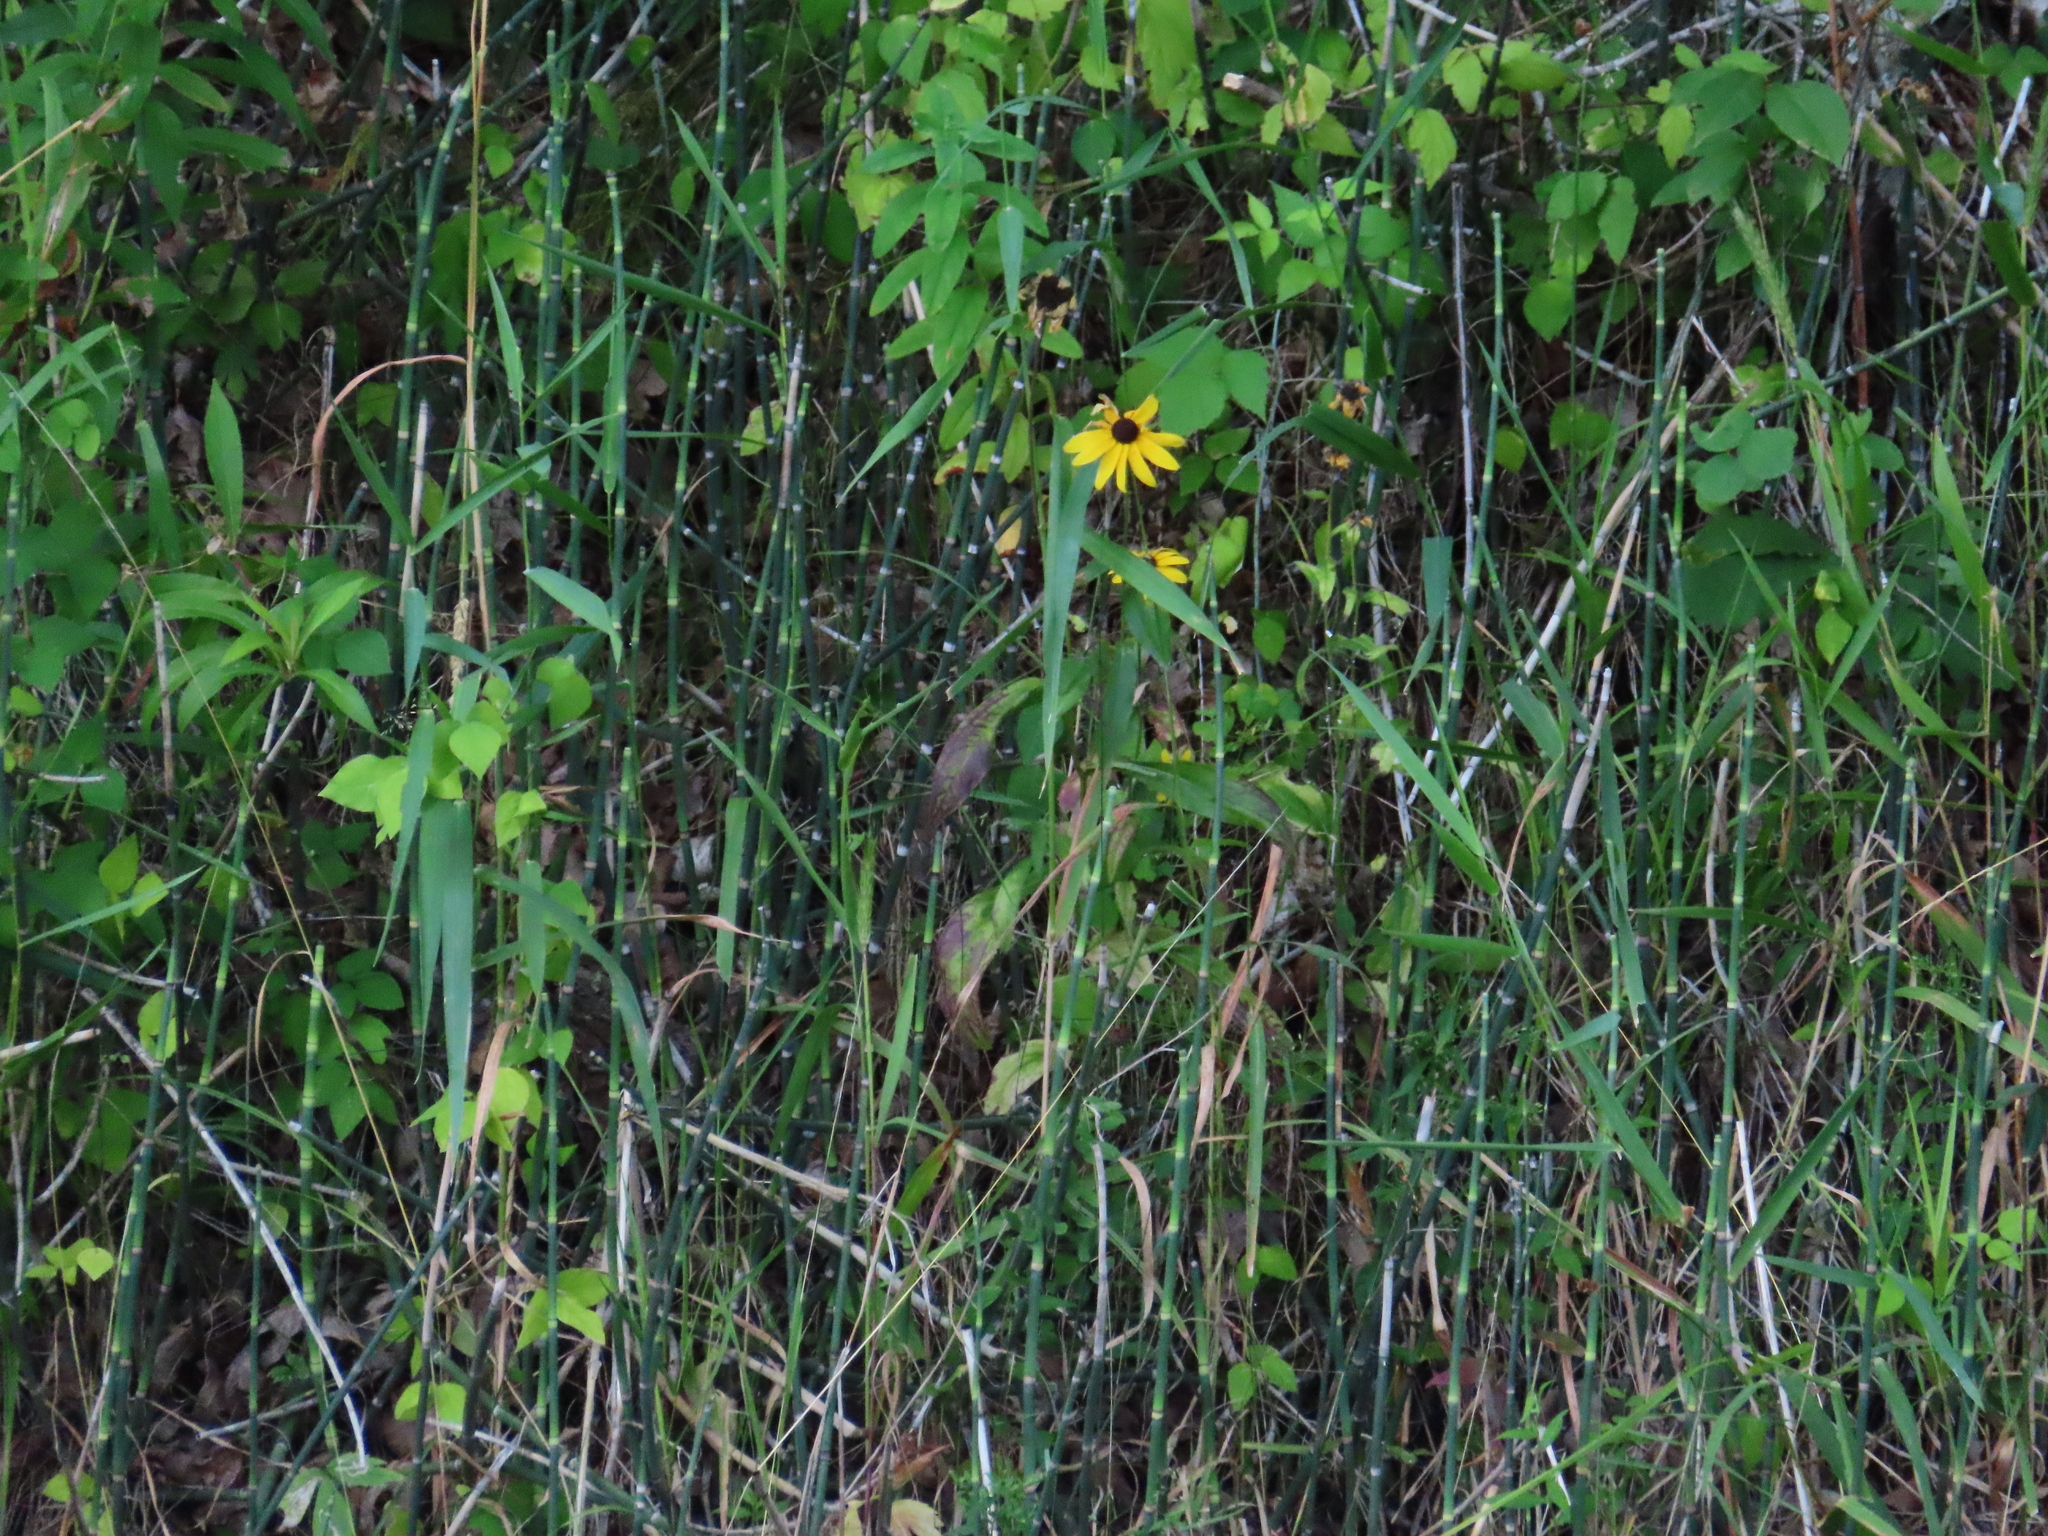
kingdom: Plantae
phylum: Tracheophyta
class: Magnoliopsida
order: Asterales
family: Asteraceae
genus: Rudbeckia
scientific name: Rudbeckia hirta
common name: Black-eyed-susan
